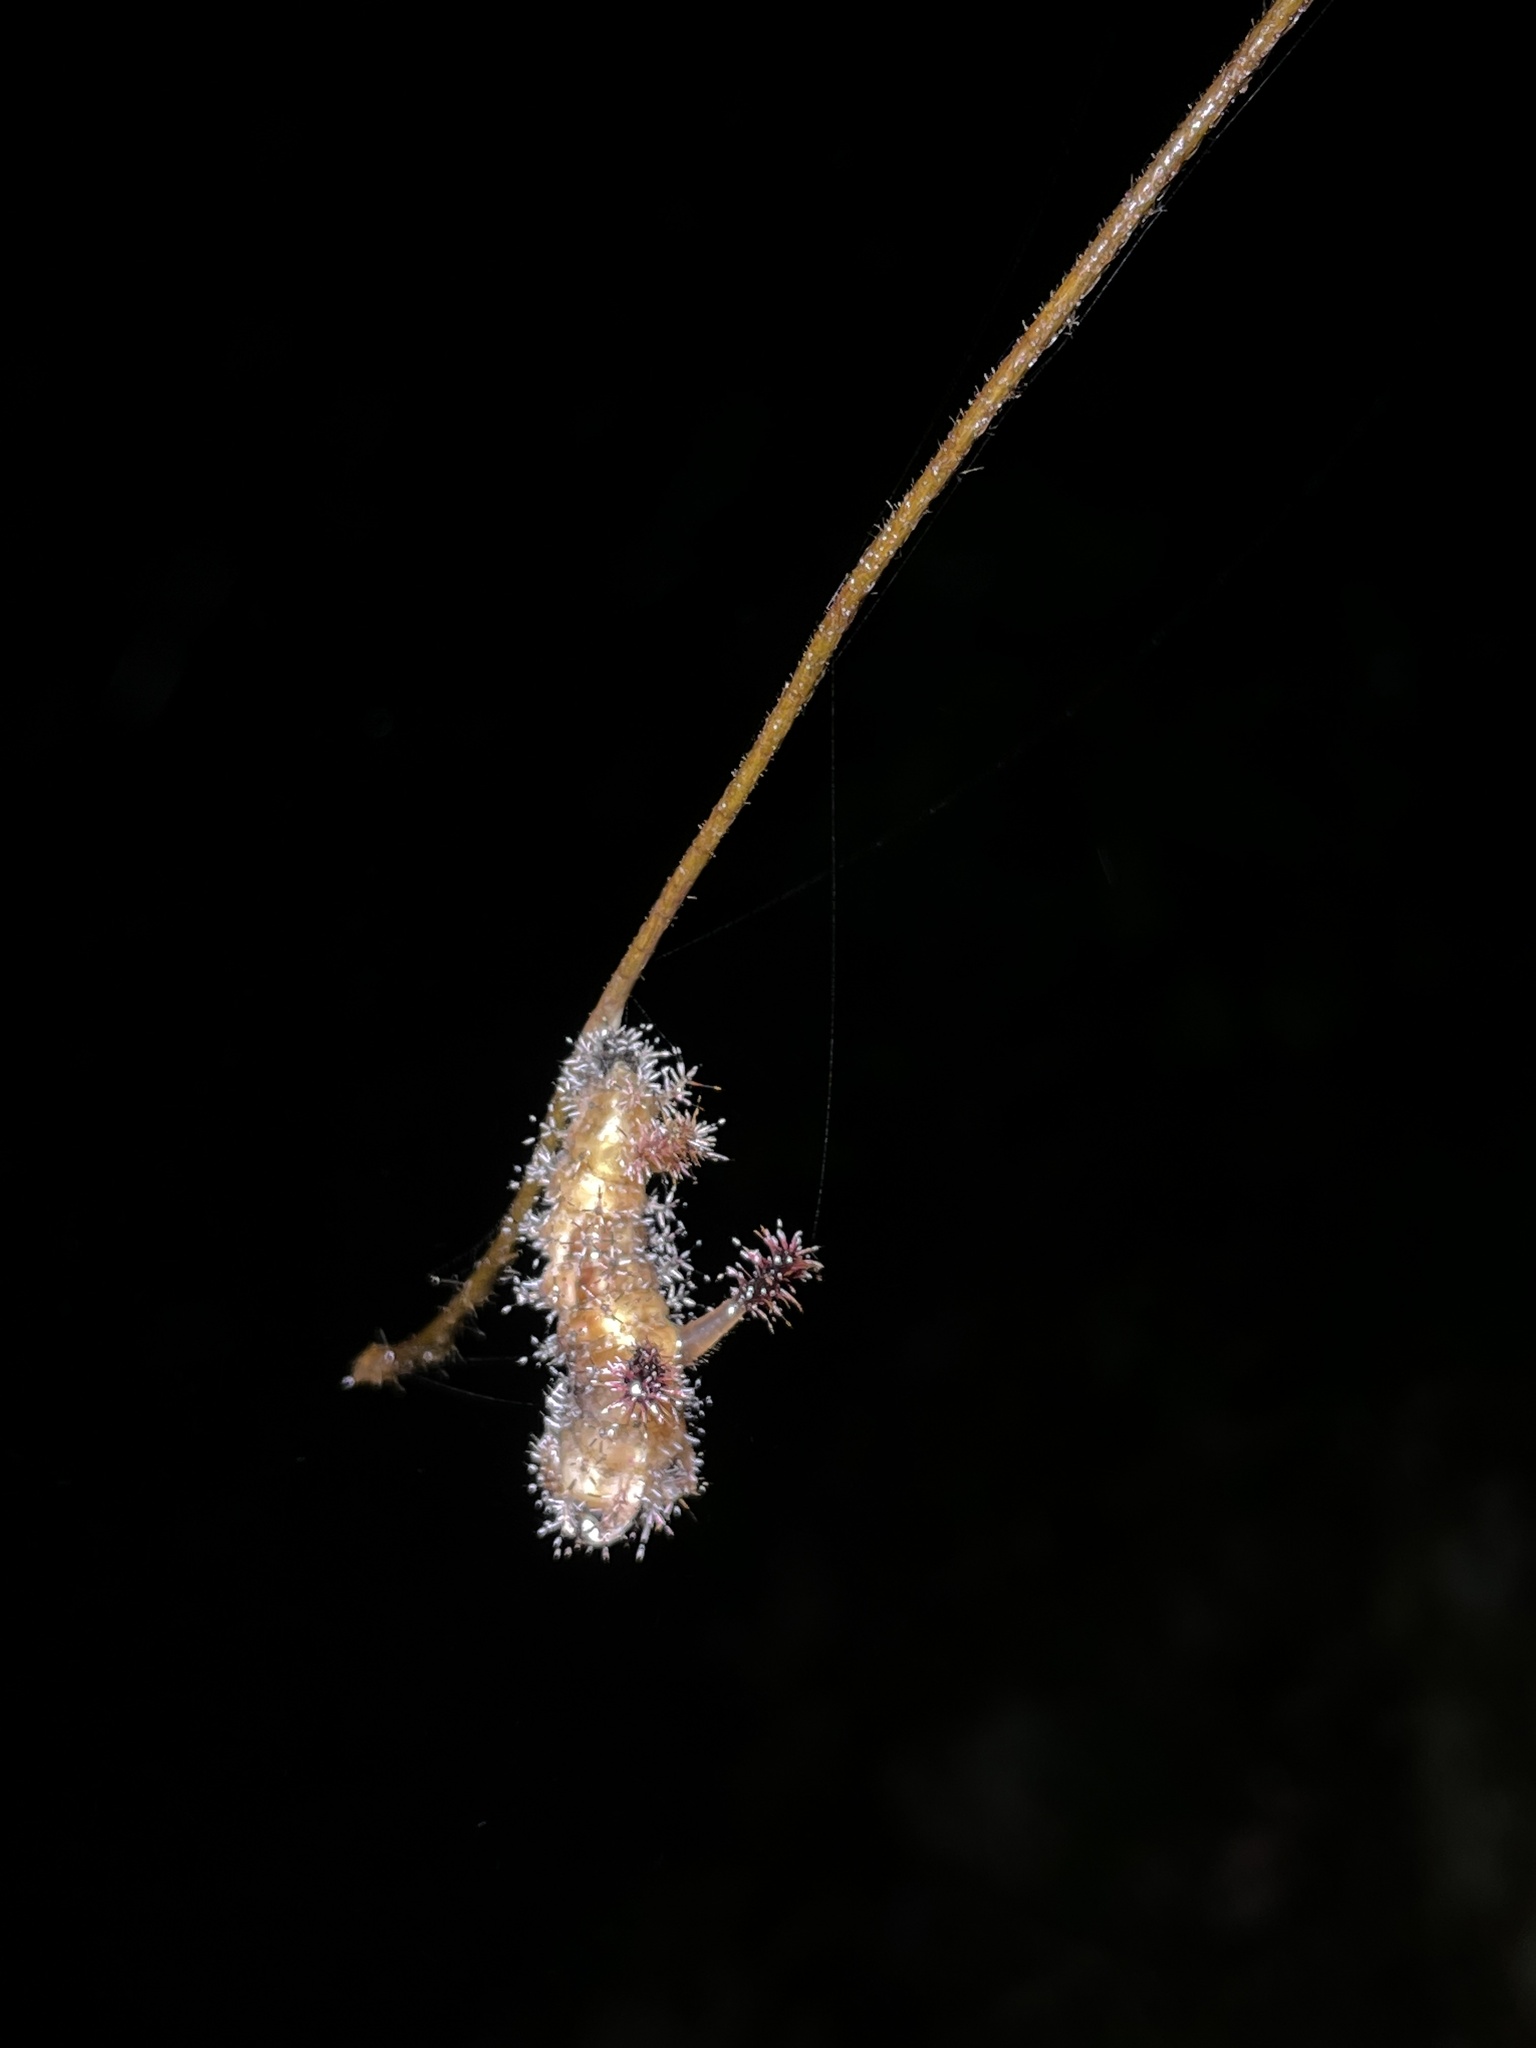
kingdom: Animalia
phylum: Arthropoda
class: Insecta
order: Lepidoptera
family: Nymphalidae
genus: Limenitis
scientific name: Limenitis Parasarpa dudu
